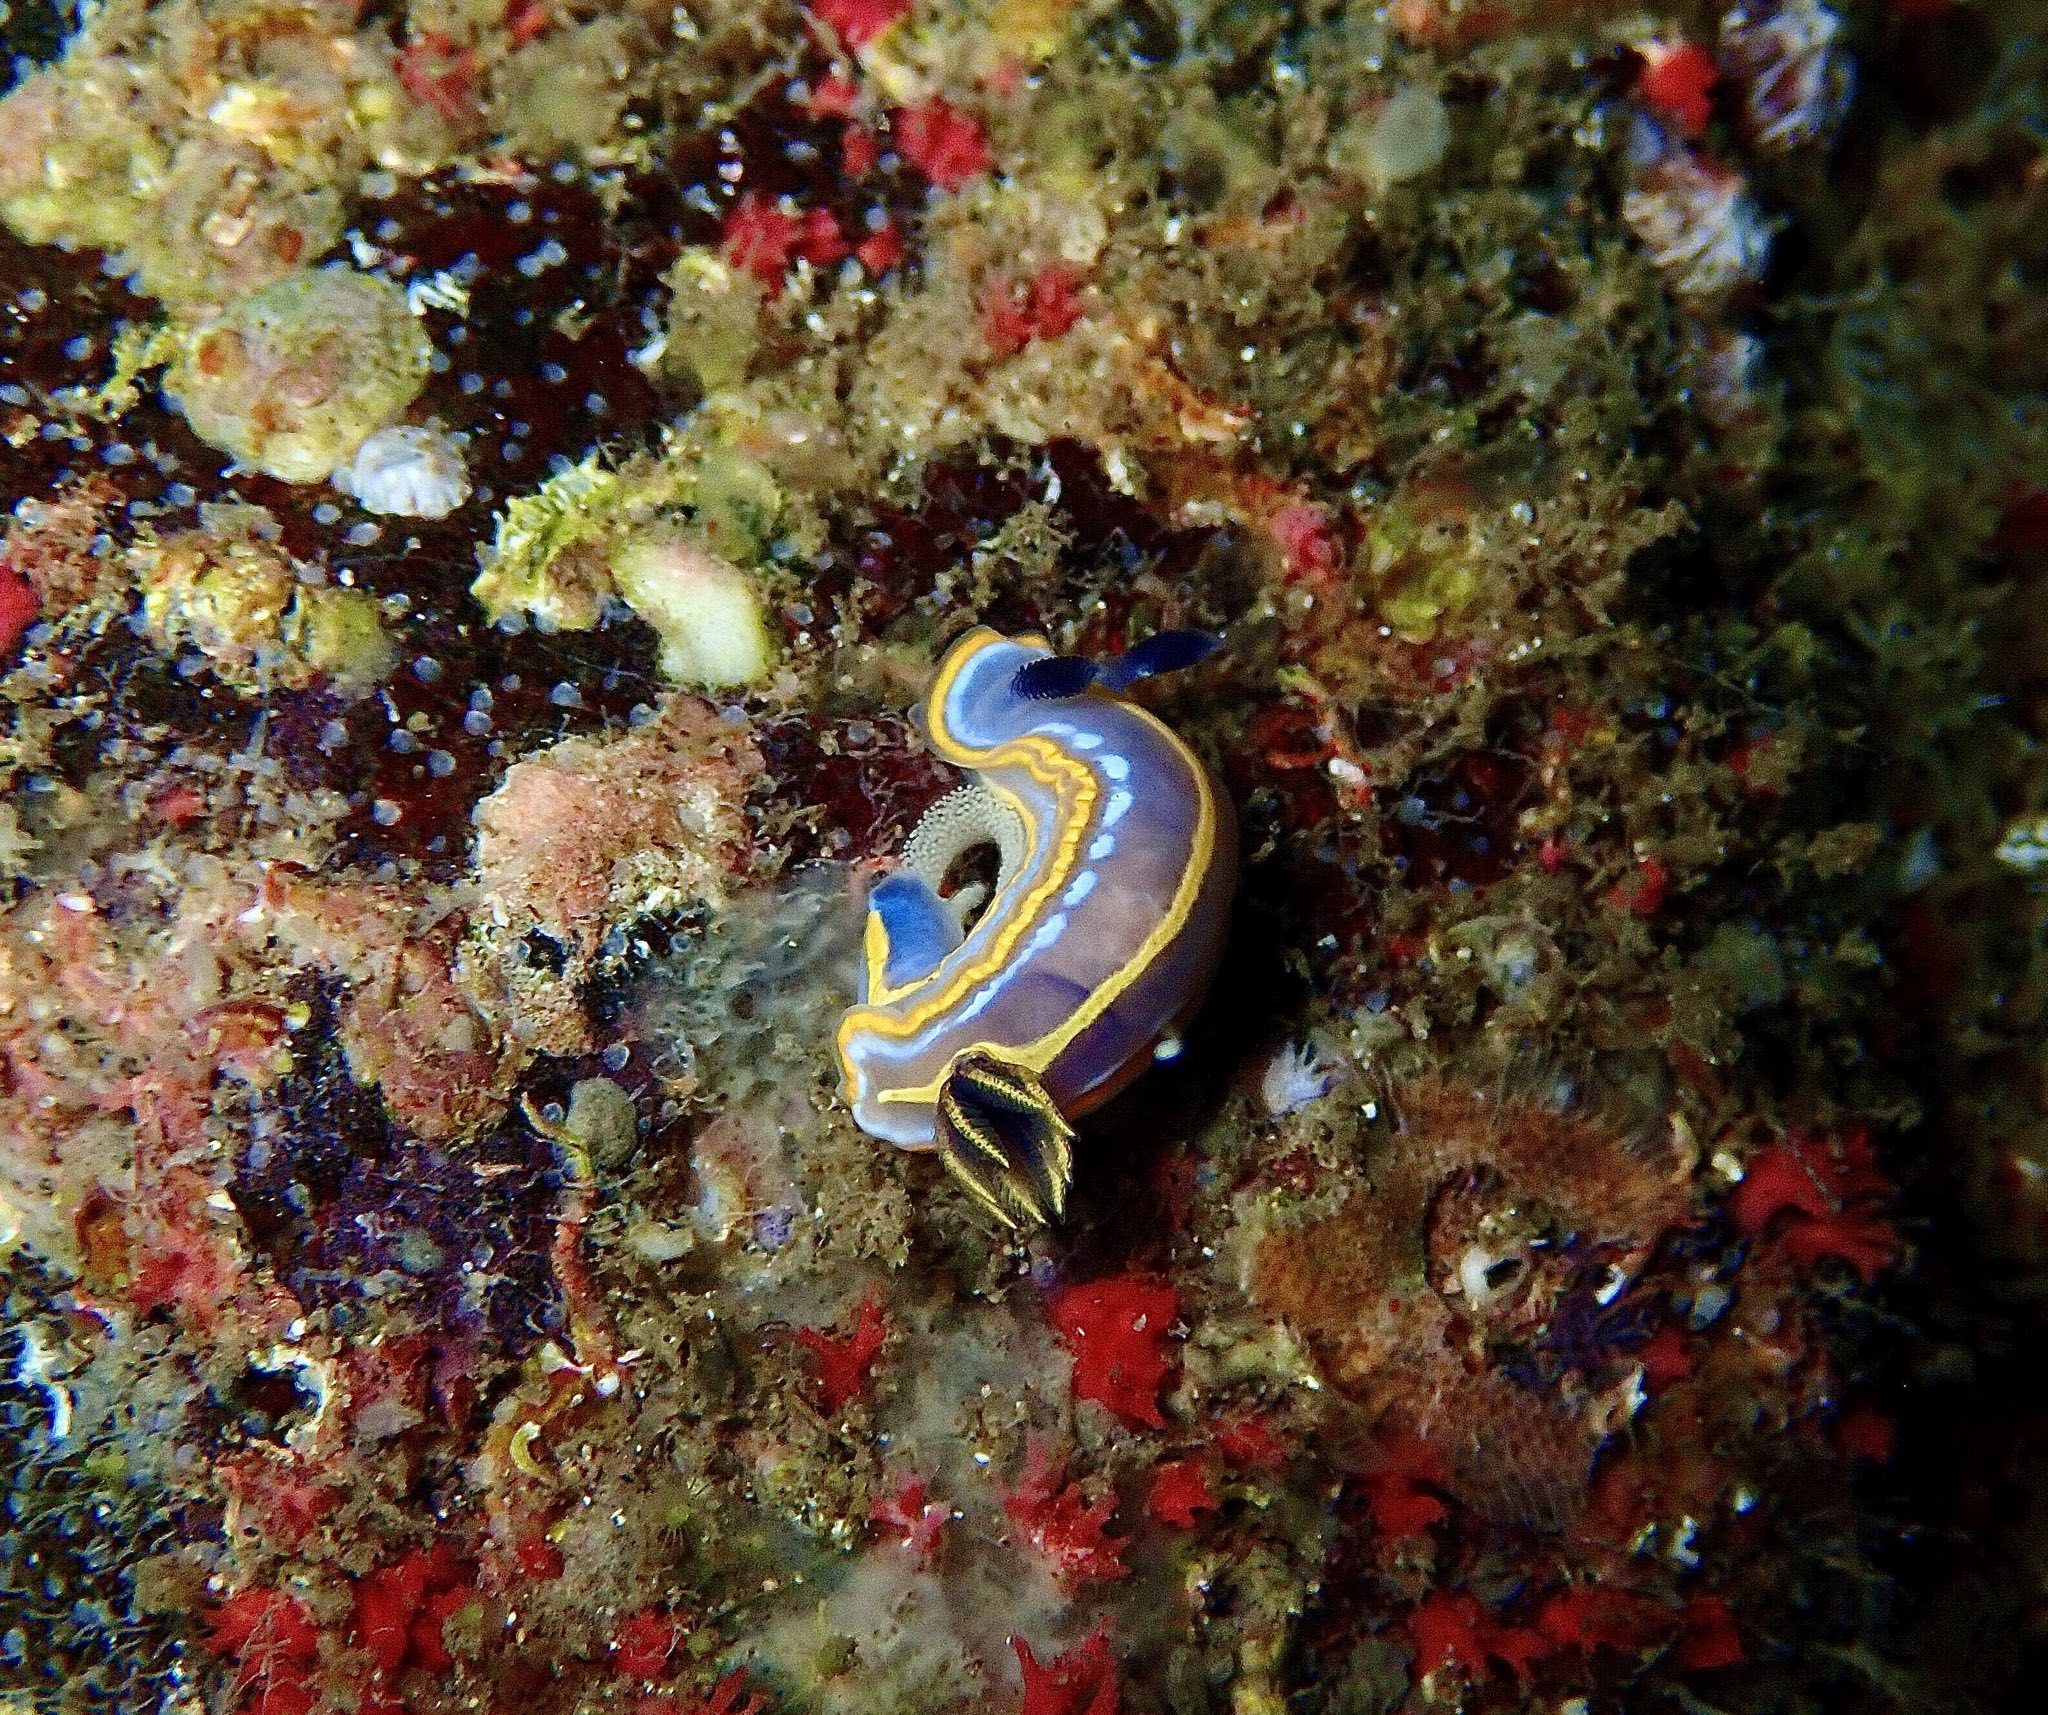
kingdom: Animalia
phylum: Mollusca
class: Gastropoda
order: Nudibranchia
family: Chromodorididae
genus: Felimare
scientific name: Felimare tricolor
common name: Tricolor doris
